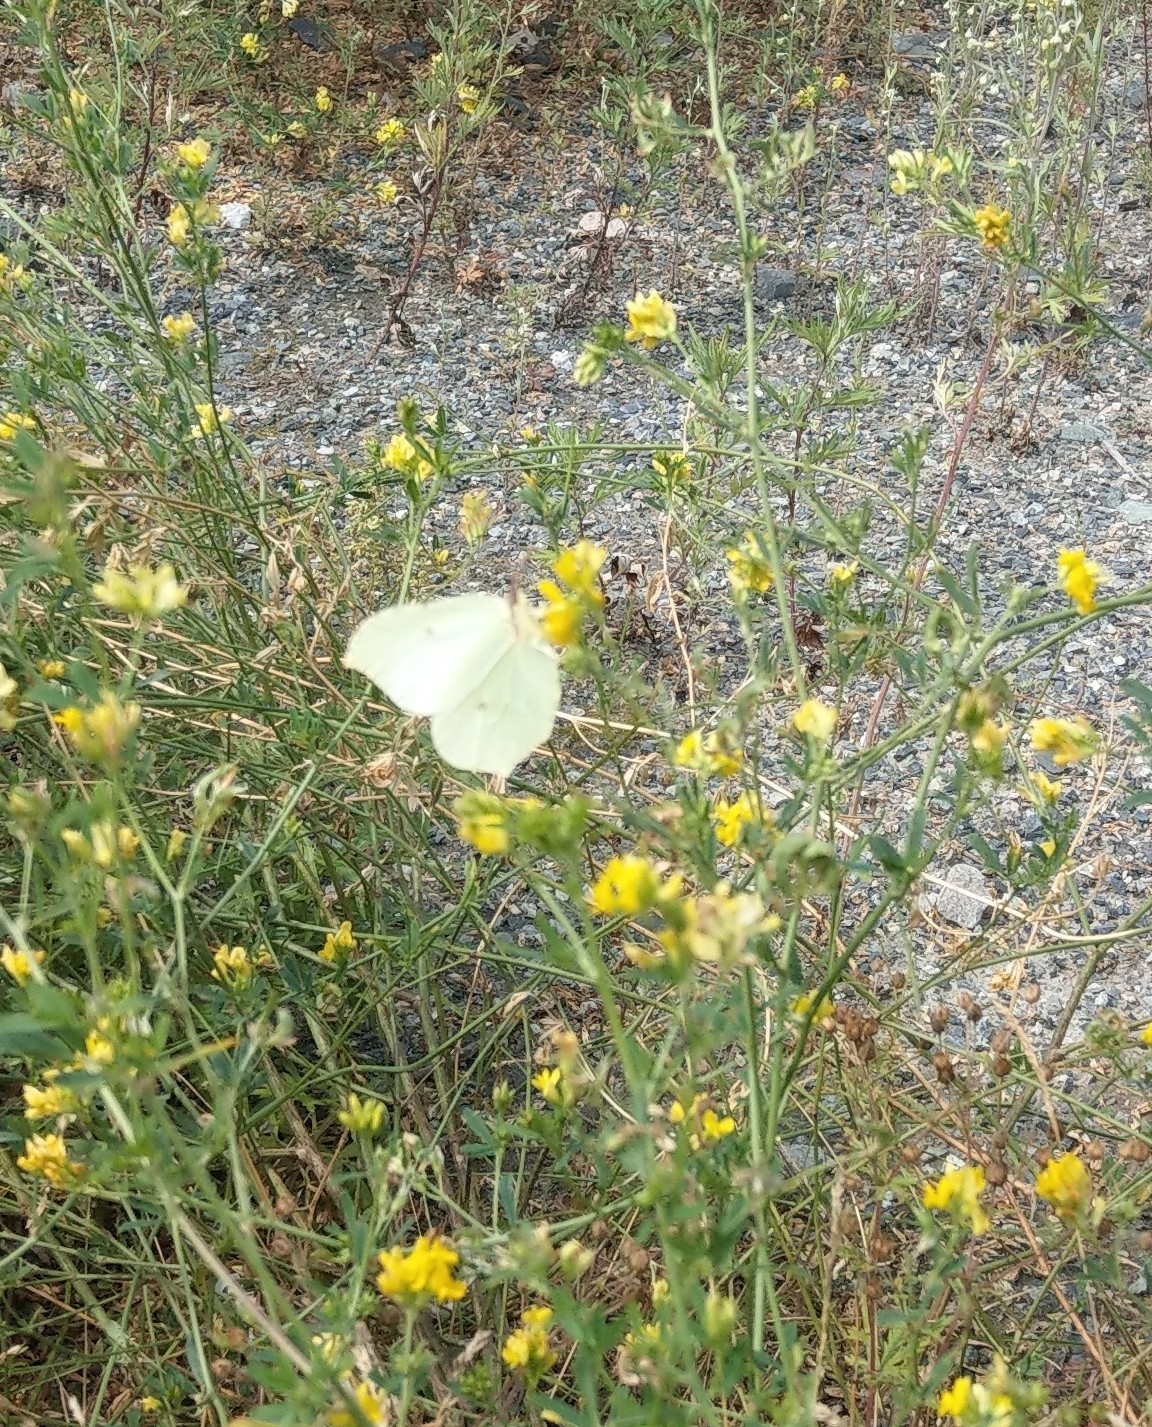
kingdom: Animalia
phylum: Arthropoda
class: Insecta
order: Lepidoptera
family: Pieridae
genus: Gonepteryx
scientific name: Gonepteryx rhamni
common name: Brimstone
